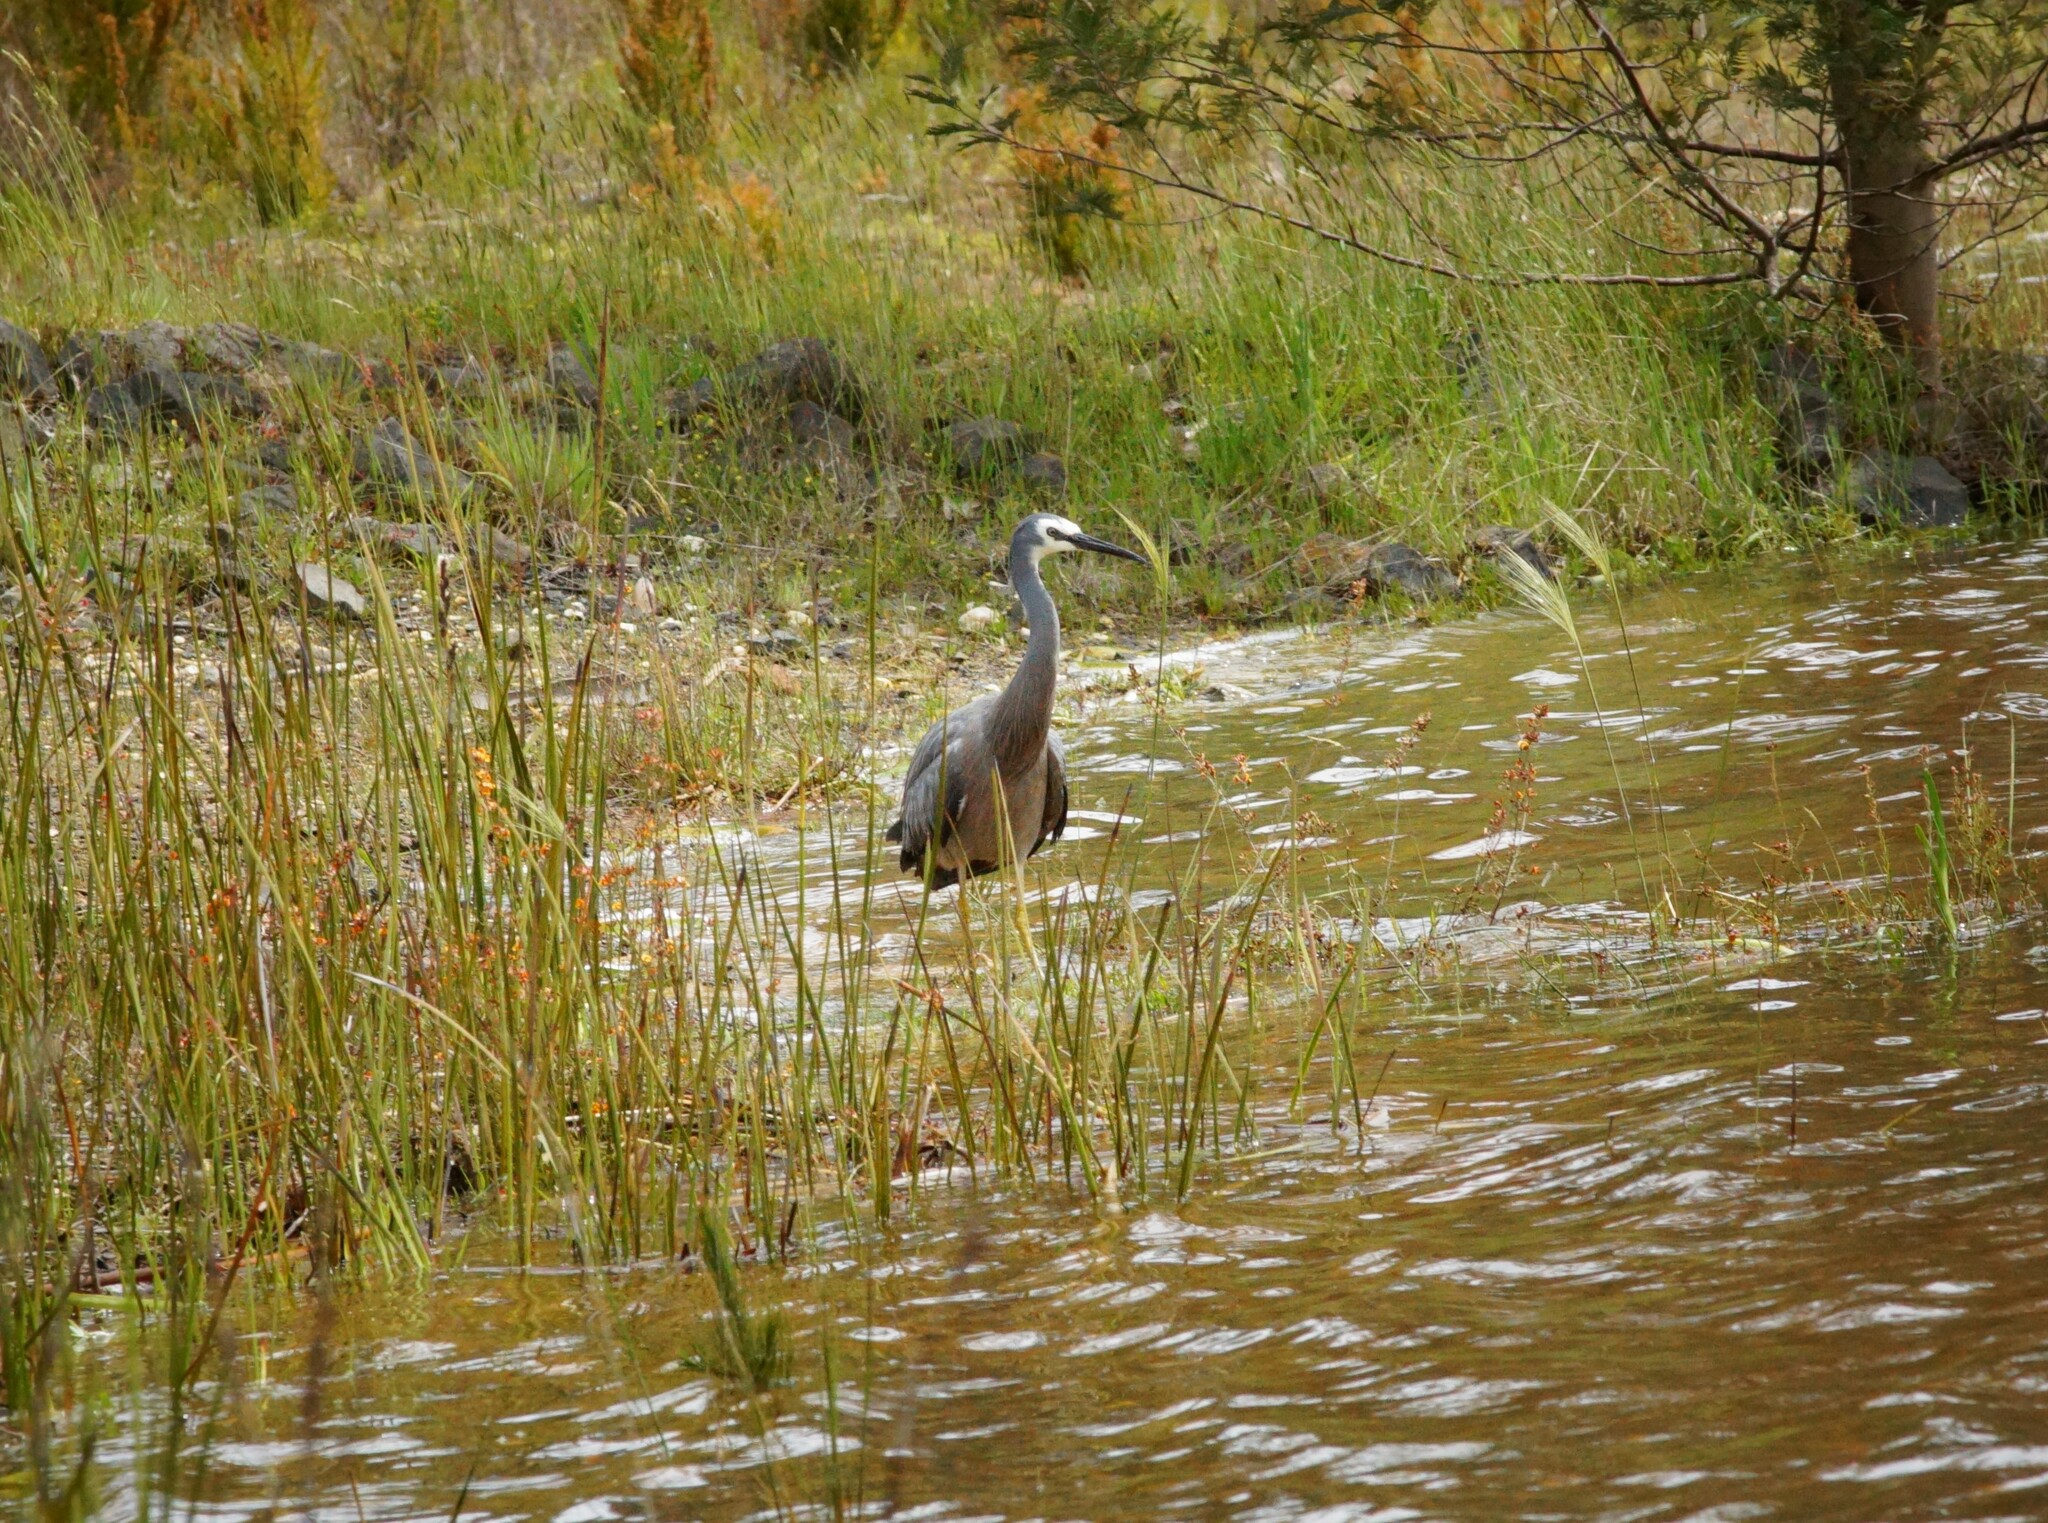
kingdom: Animalia
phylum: Chordata
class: Aves
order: Pelecaniformes
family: Ardeidae
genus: Egretta
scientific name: Egretta novaehollandiae
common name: White-faced heron
